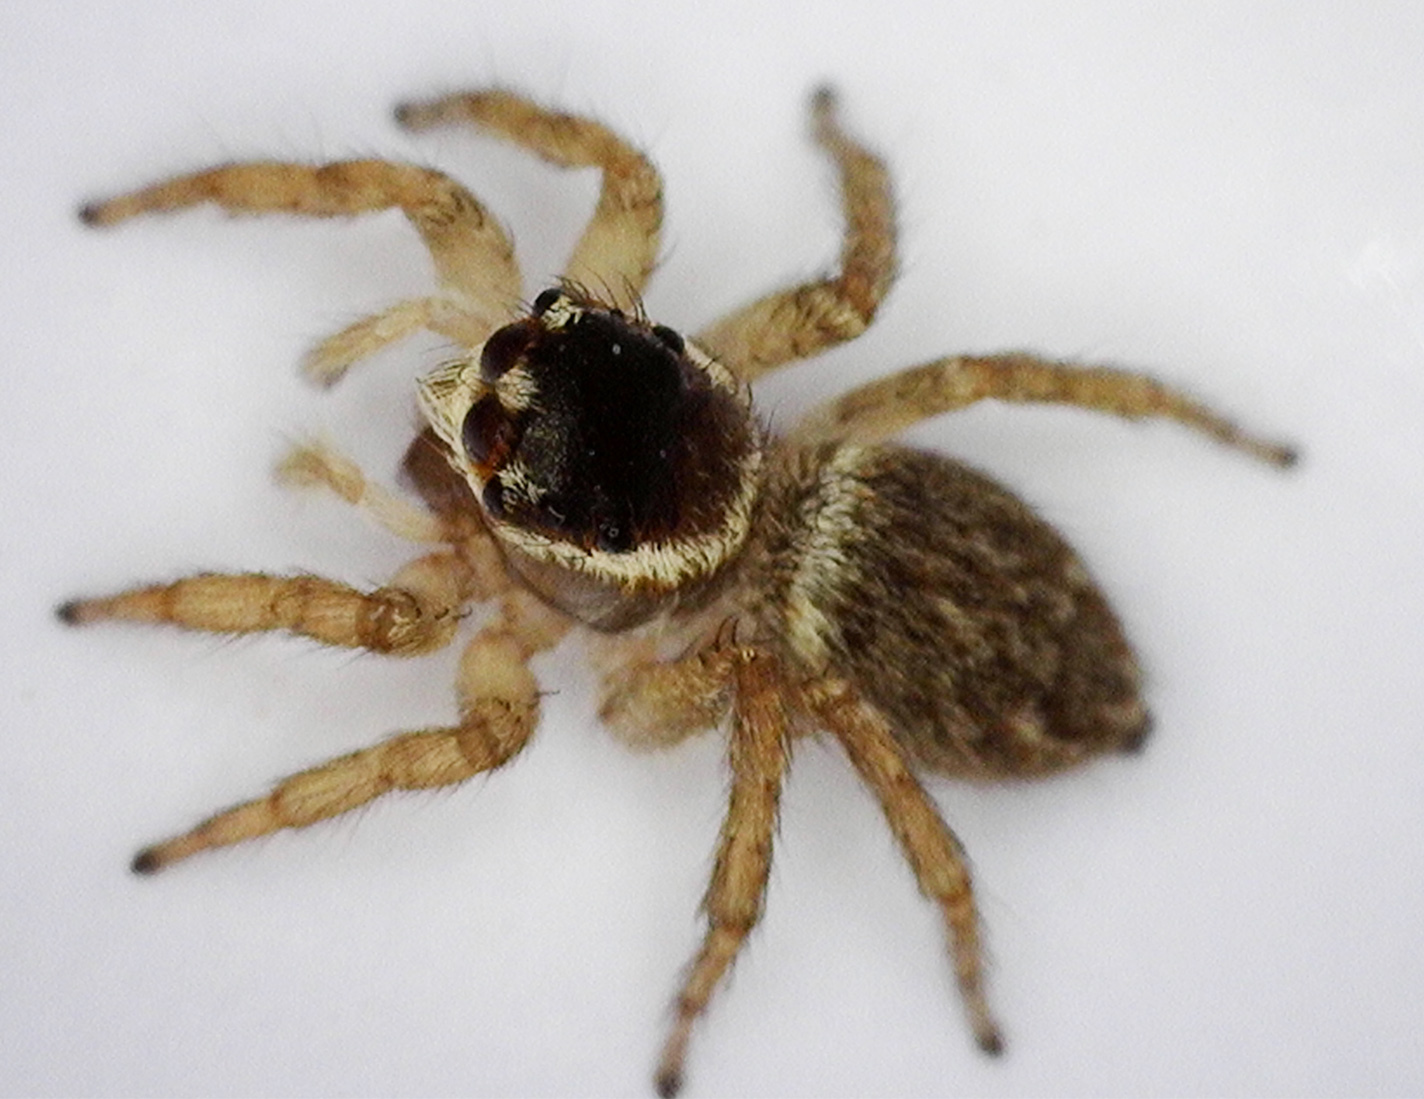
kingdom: Animalia
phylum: Arthropoda
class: Arachnida
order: Araneae
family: Salticidae
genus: Maratus
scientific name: Maratus griseus
